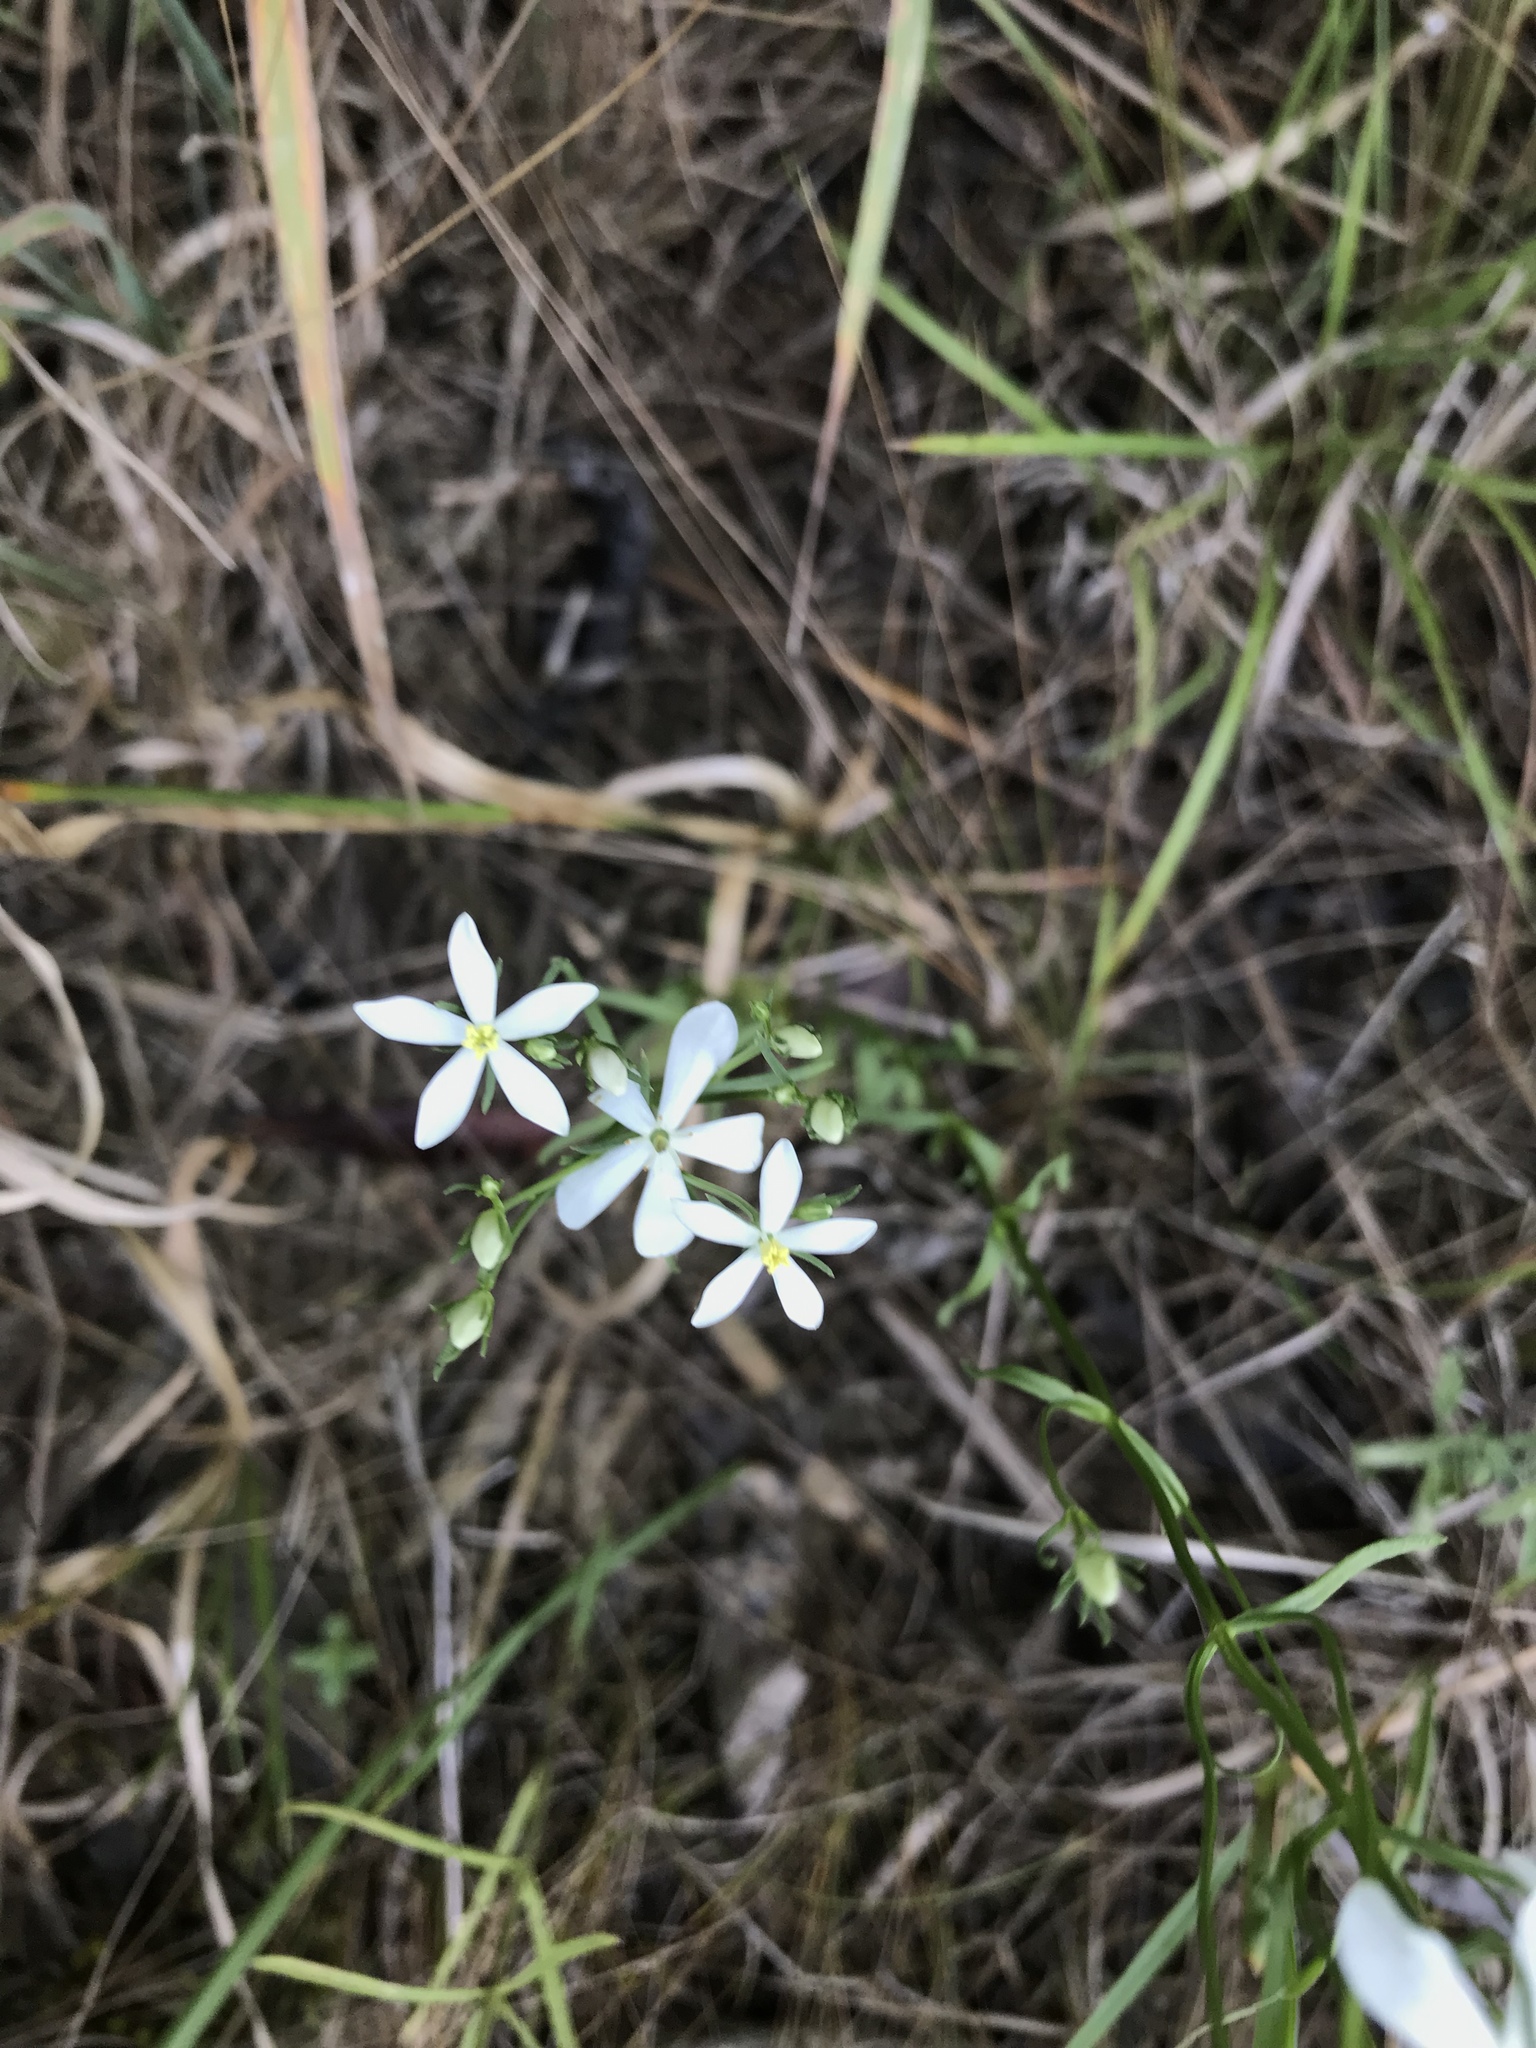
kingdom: Plantae
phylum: Tracheophyta
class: Magnoliopsida
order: Gentianales
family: Gentianaceae
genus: Sabatia
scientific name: Sabatia quadrangula
